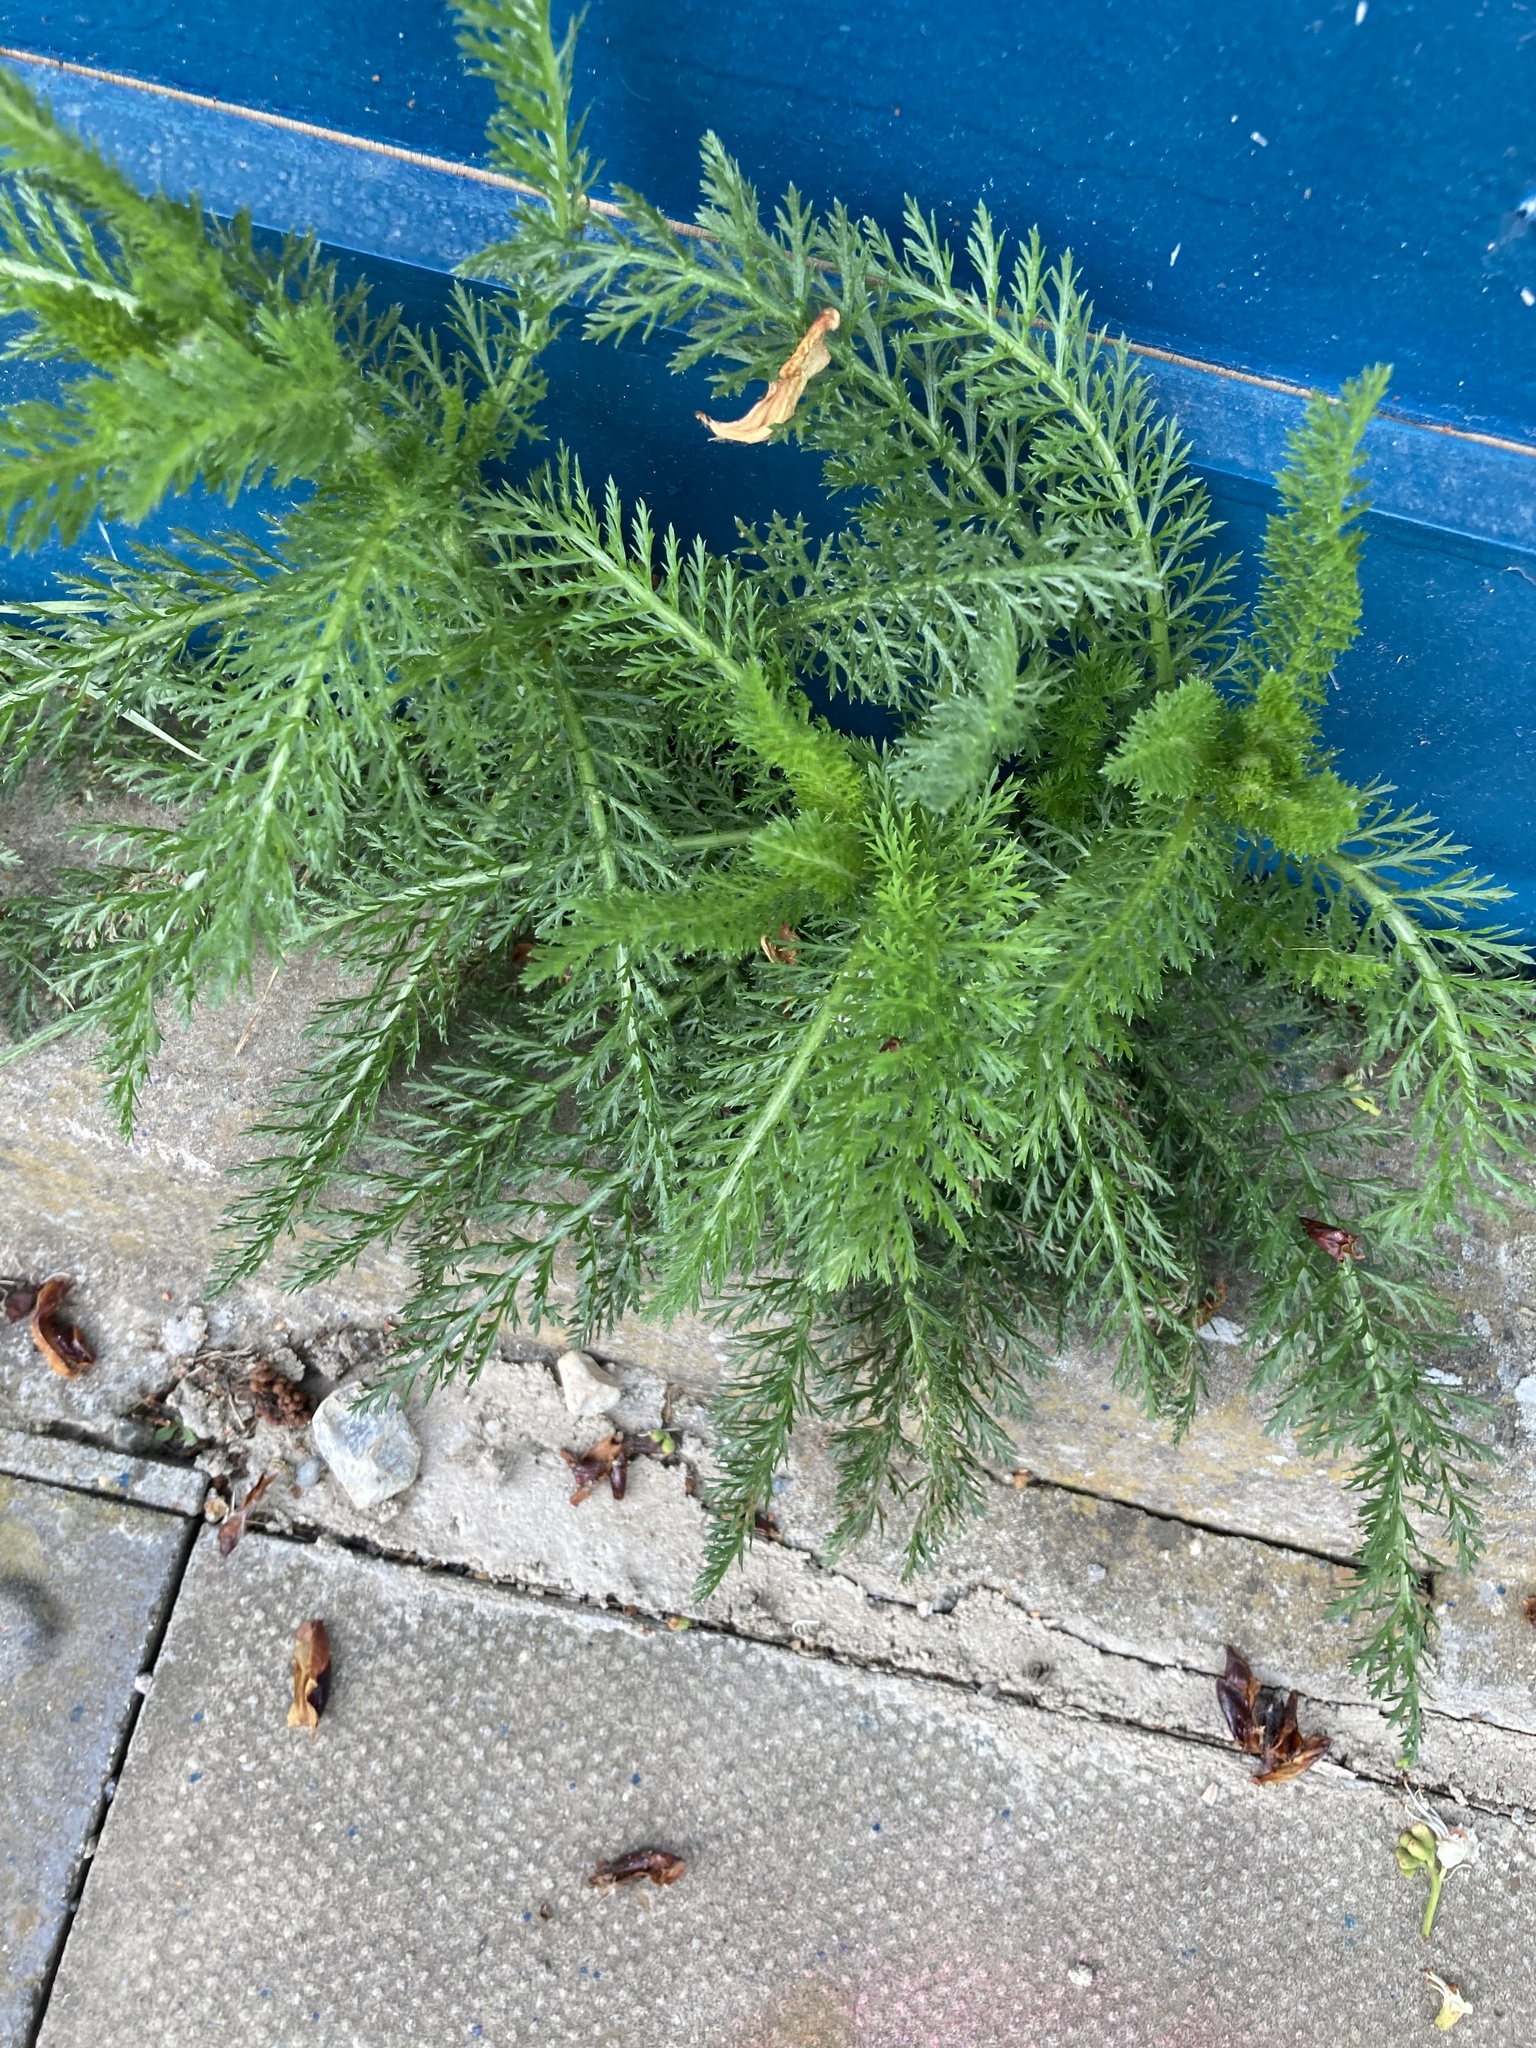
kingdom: Plantae
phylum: Tracheophyta
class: Magnoliopsida
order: Asterales
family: Asteraceae
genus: Achillea
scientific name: Achillea millefolium
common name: Yarrow
